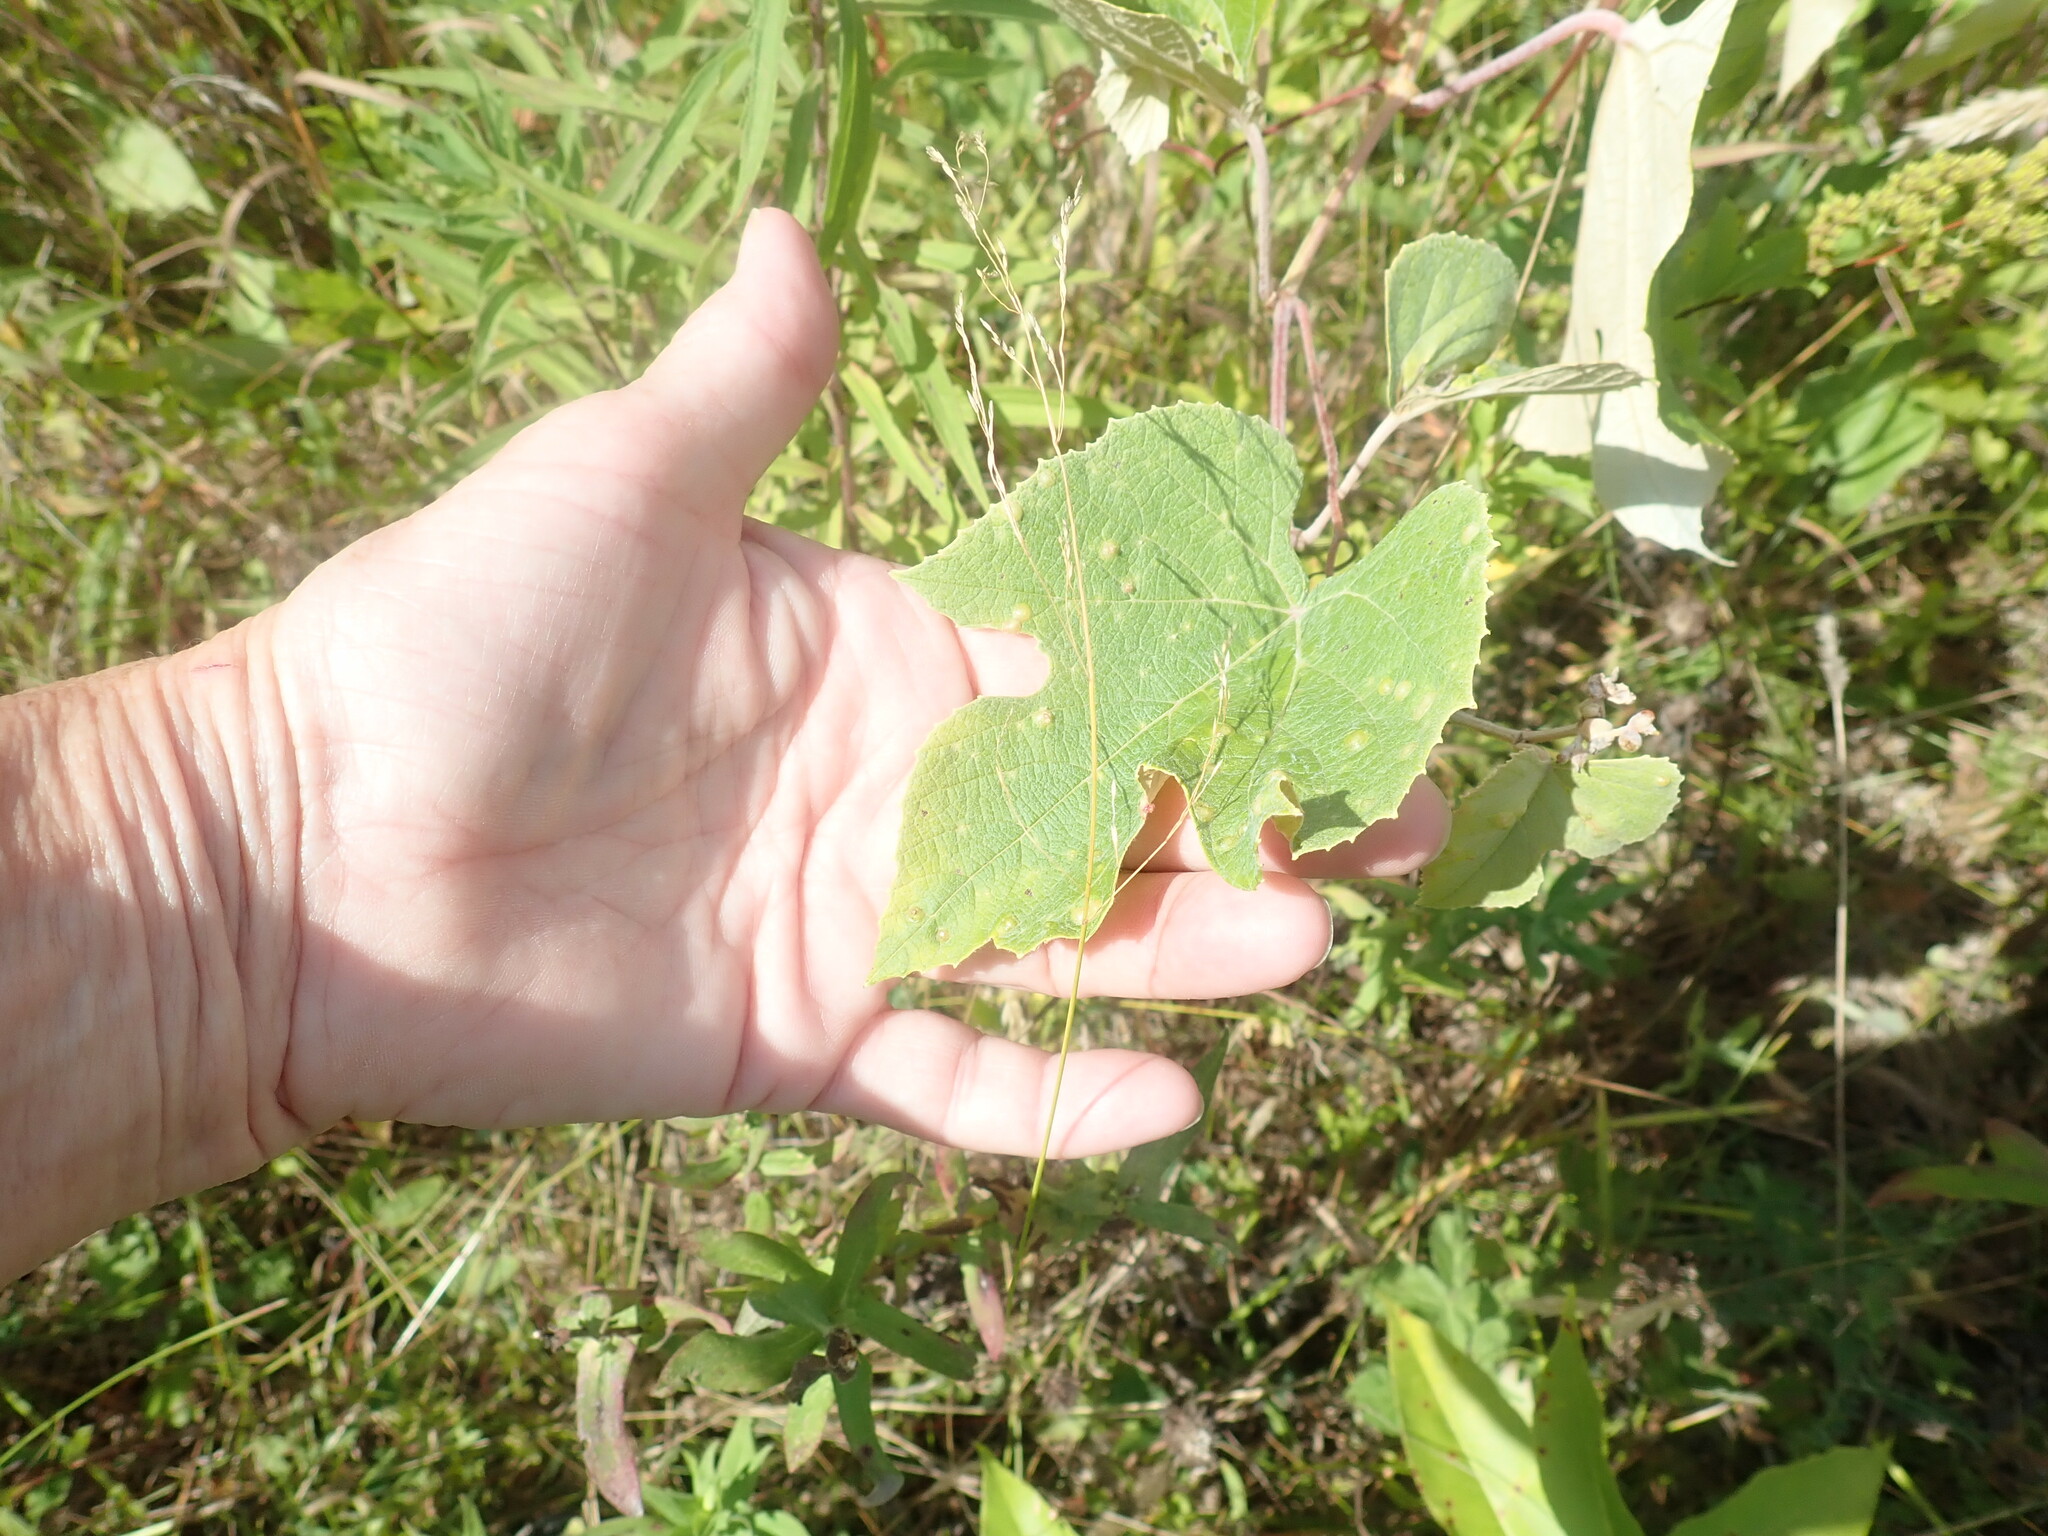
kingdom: Plantae
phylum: Tracheophyta
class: Magnoliopsida
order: Vitales
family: Vitaceae
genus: Vitis
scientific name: Vitis
